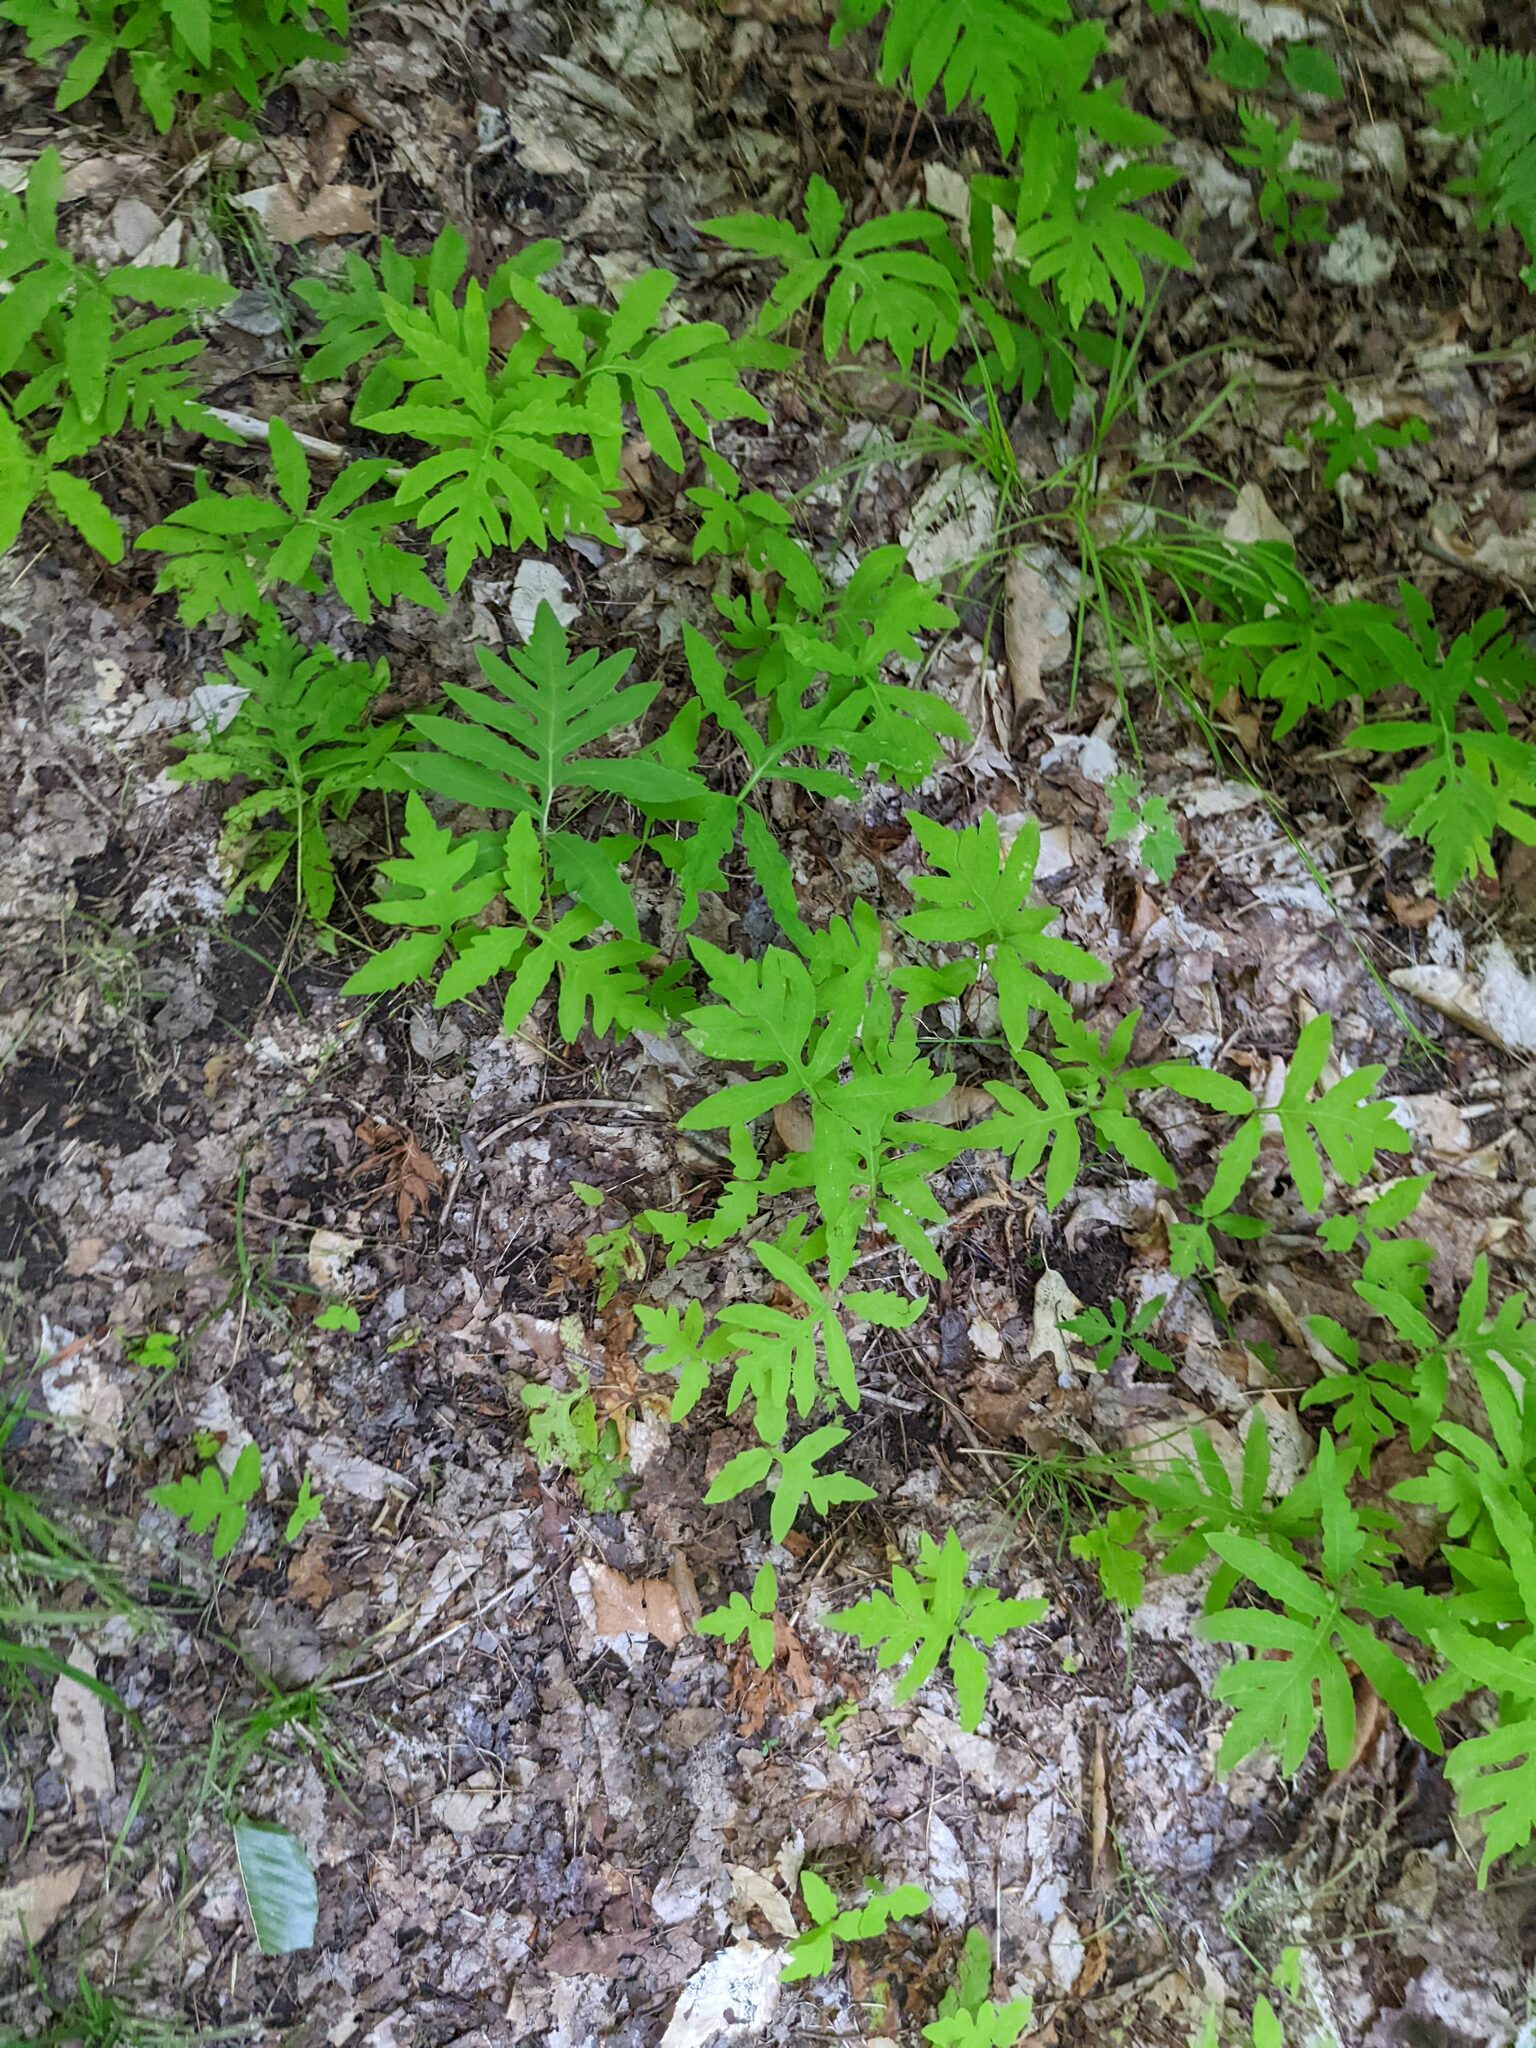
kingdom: Plantae
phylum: Tracheophyta
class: Polypodiopsida
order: Polypodiales
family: Onocleaceae
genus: Onoclea
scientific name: Onoclea sensibilis
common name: Sensitive fern
